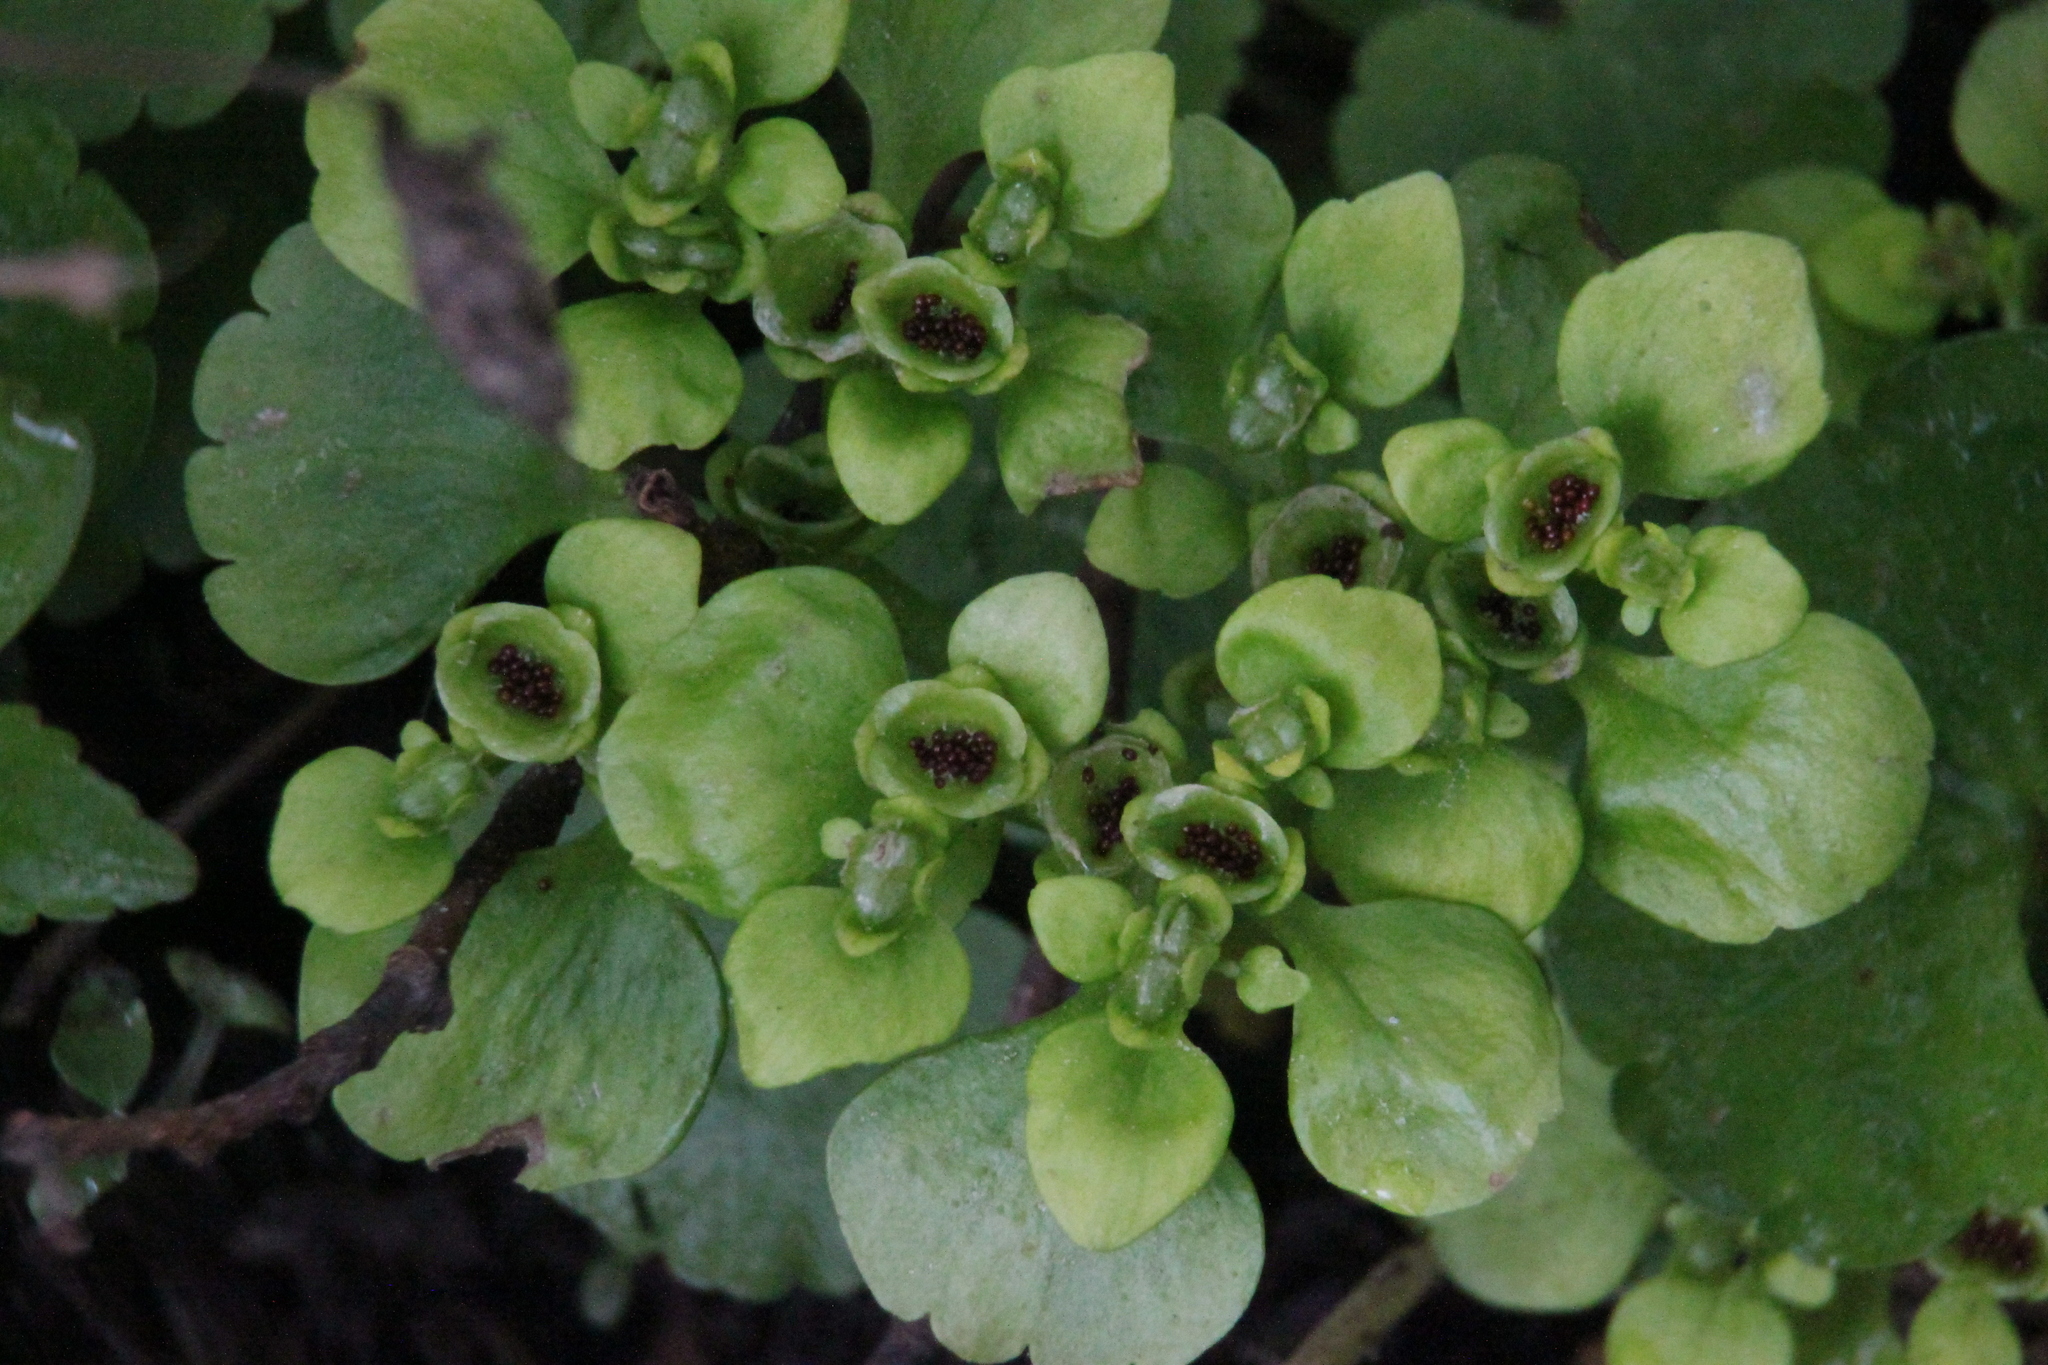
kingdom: Plantae
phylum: Tracheophyta
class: Magnoliopsida
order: Saxifragales
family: Saxifragaceae
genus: Chrysosplenium
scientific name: Chrysosplenium alternifolium
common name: Alternate-leaved golden-saxifrage
